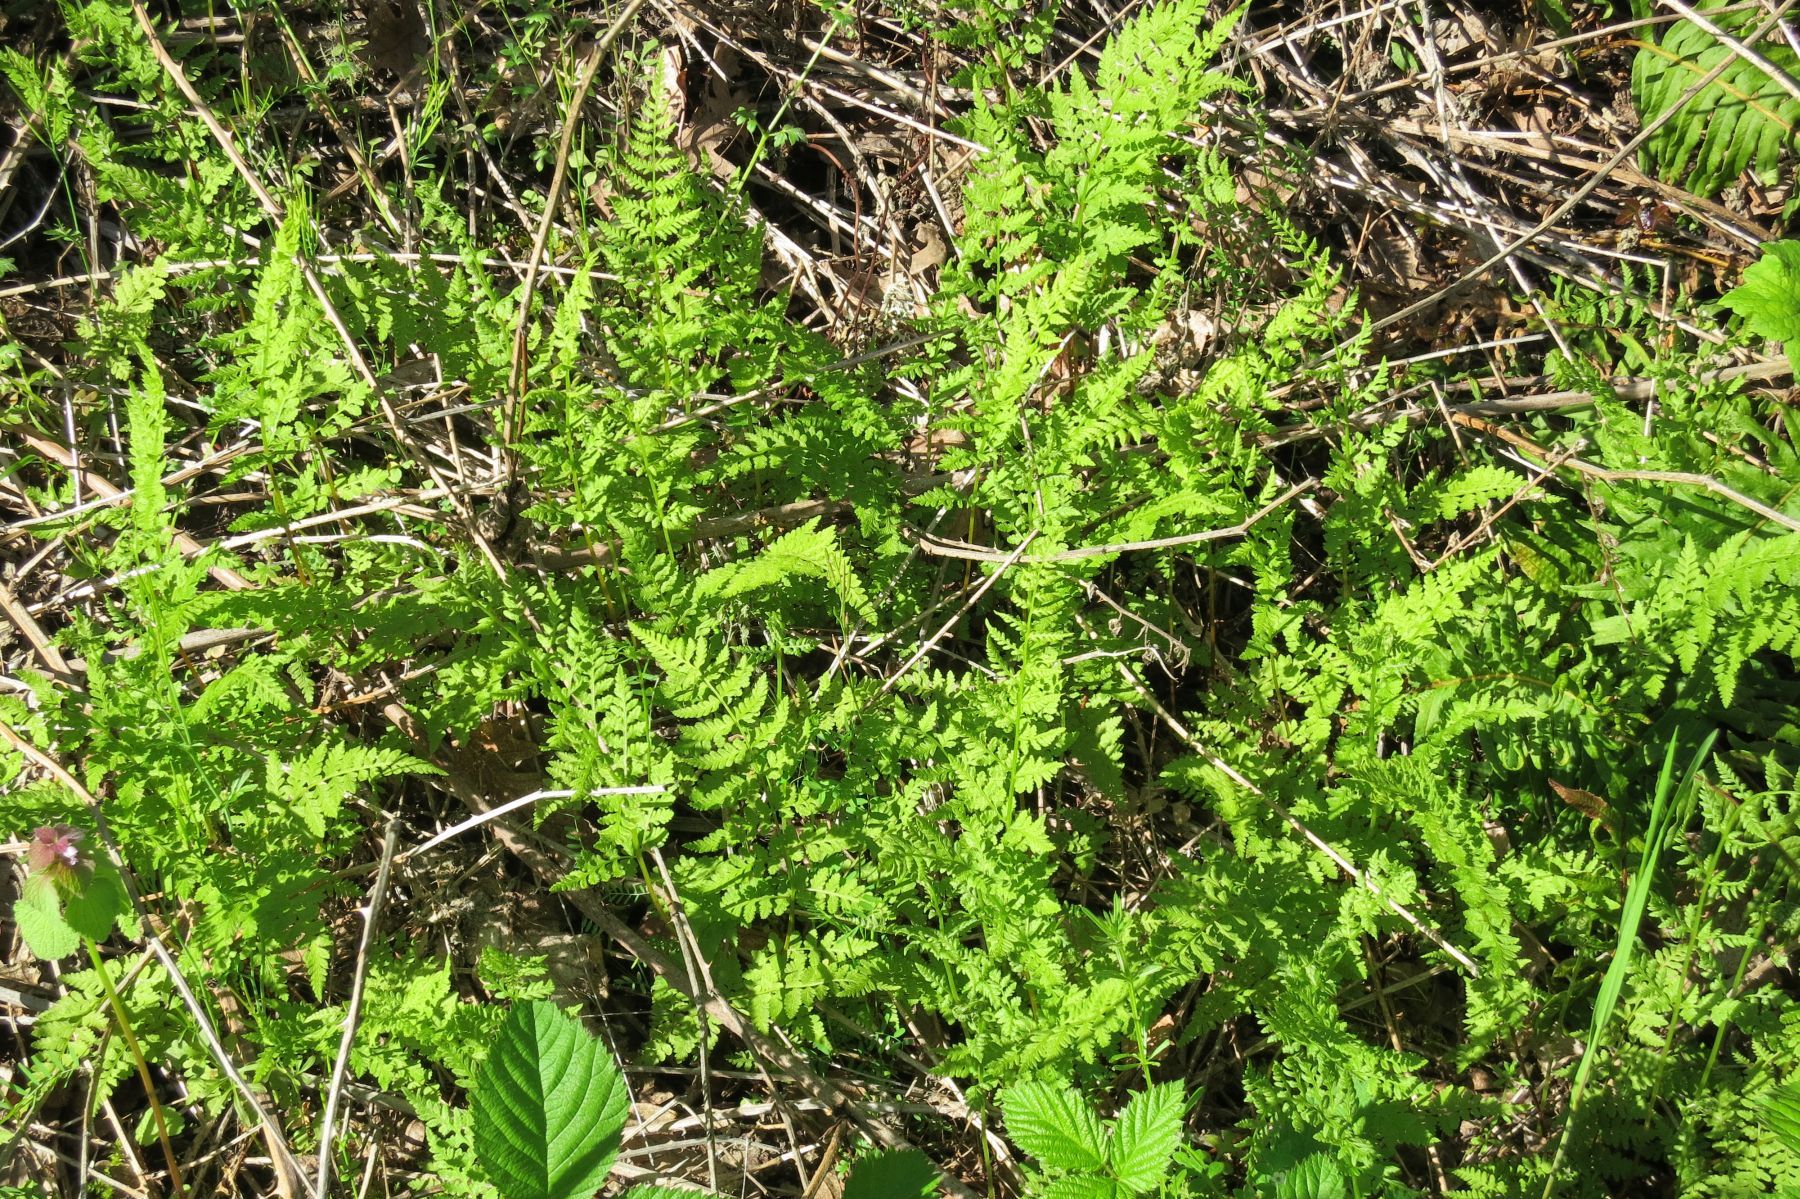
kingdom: Plantae
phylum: Tracheophyta
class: Polypodiopsida
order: Polypodiales
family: Cystopteridaceae
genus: Cystopteris
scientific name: Cystopteris fragilis
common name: Brittle bladder fern
